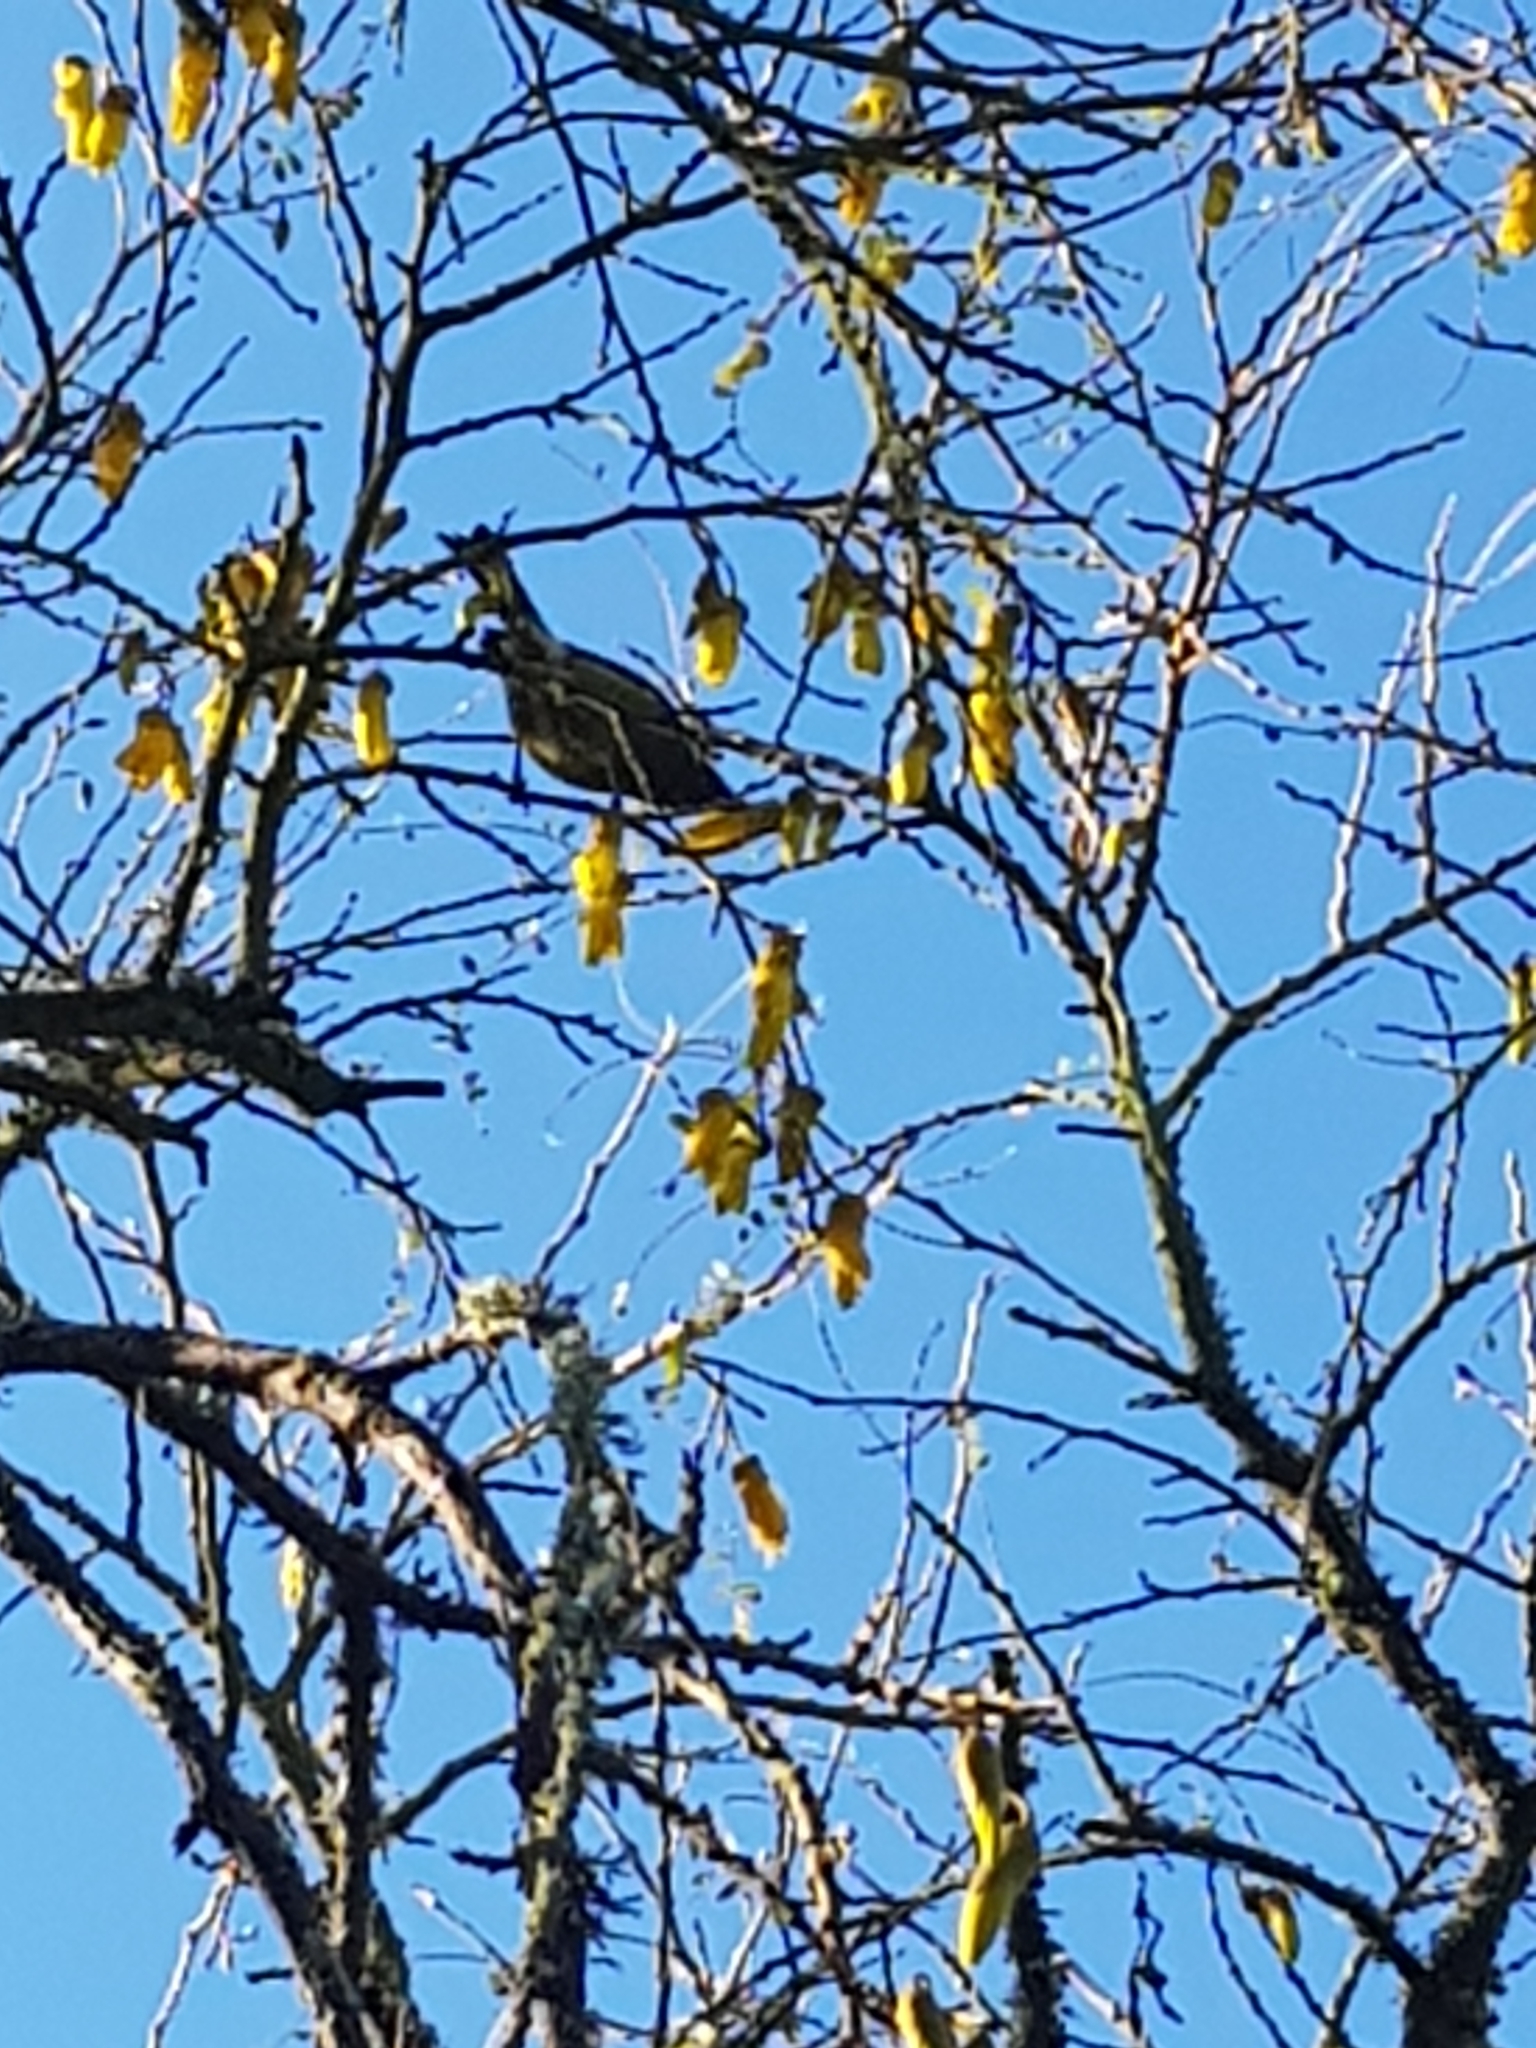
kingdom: Animalia
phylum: Chordata
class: Aves
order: Passeriformes
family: Meliphagidae
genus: Anthornis
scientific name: Anthornis melanura
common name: New zealand bellbird
